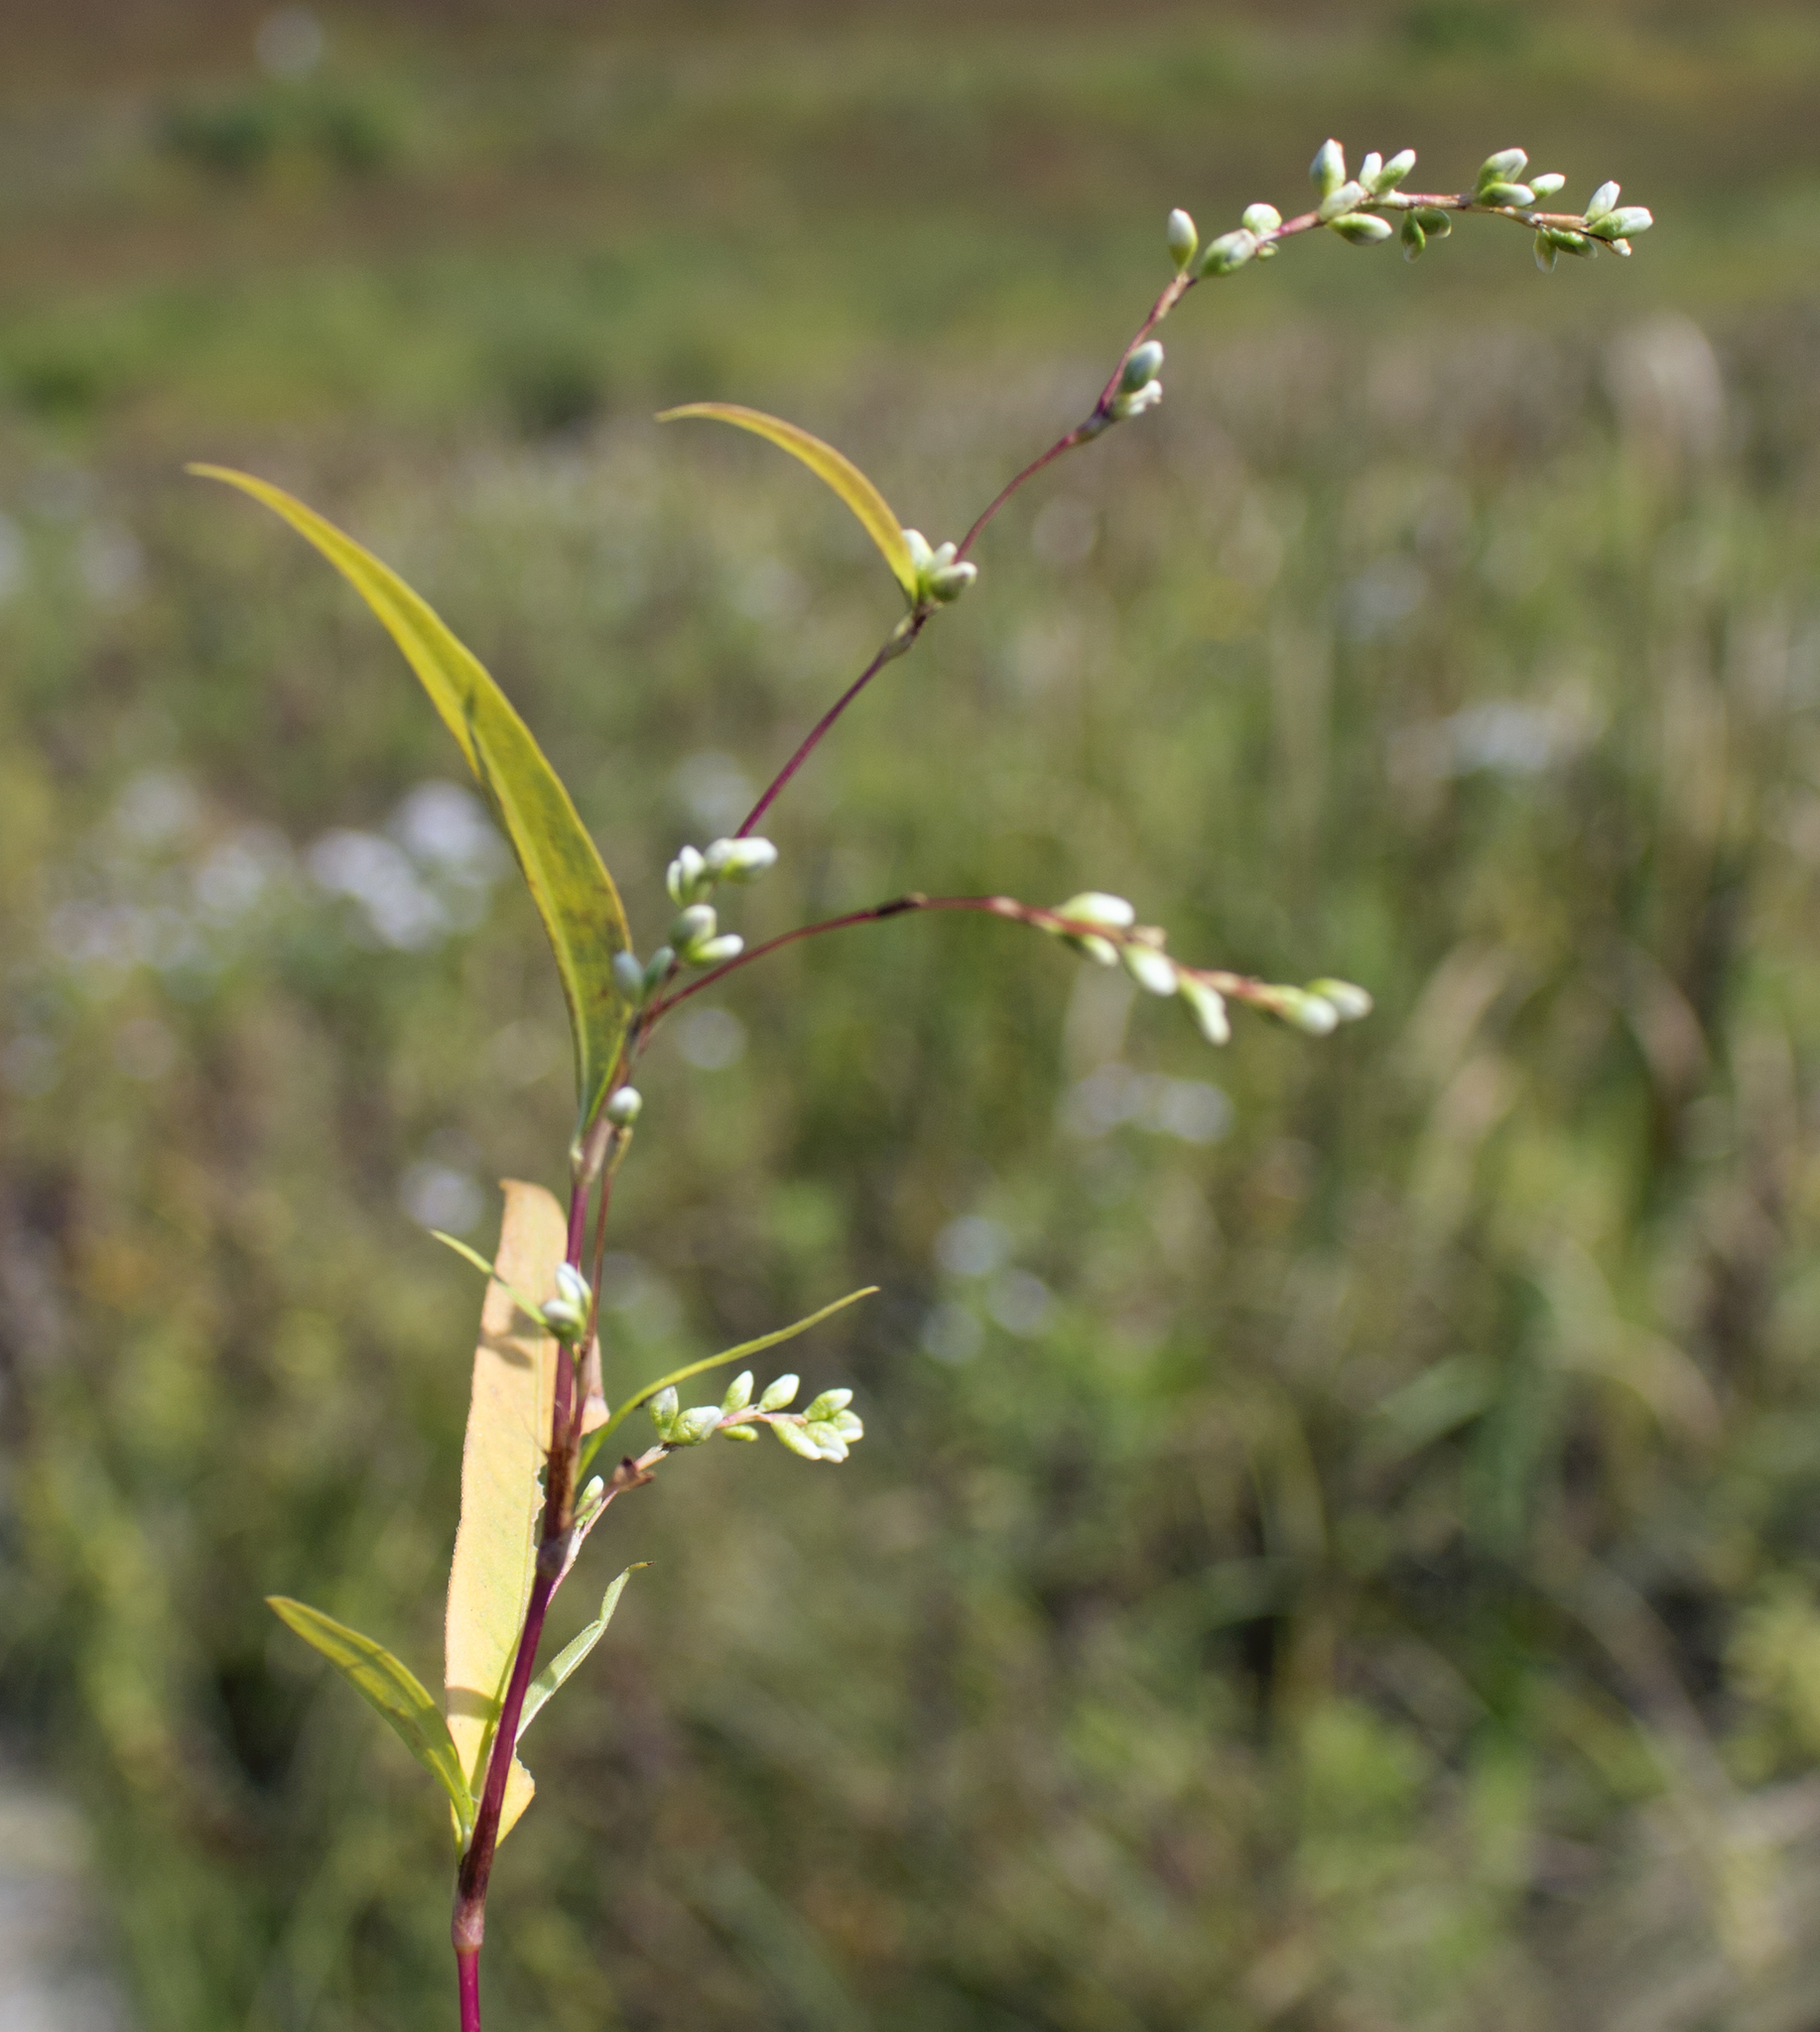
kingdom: Plantae
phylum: Tracheophyta
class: Magnoliopsida
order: Caryophyllales
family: Polygonaceae
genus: Persicaria
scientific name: Persicaria punctata
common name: Dotted smartweed
